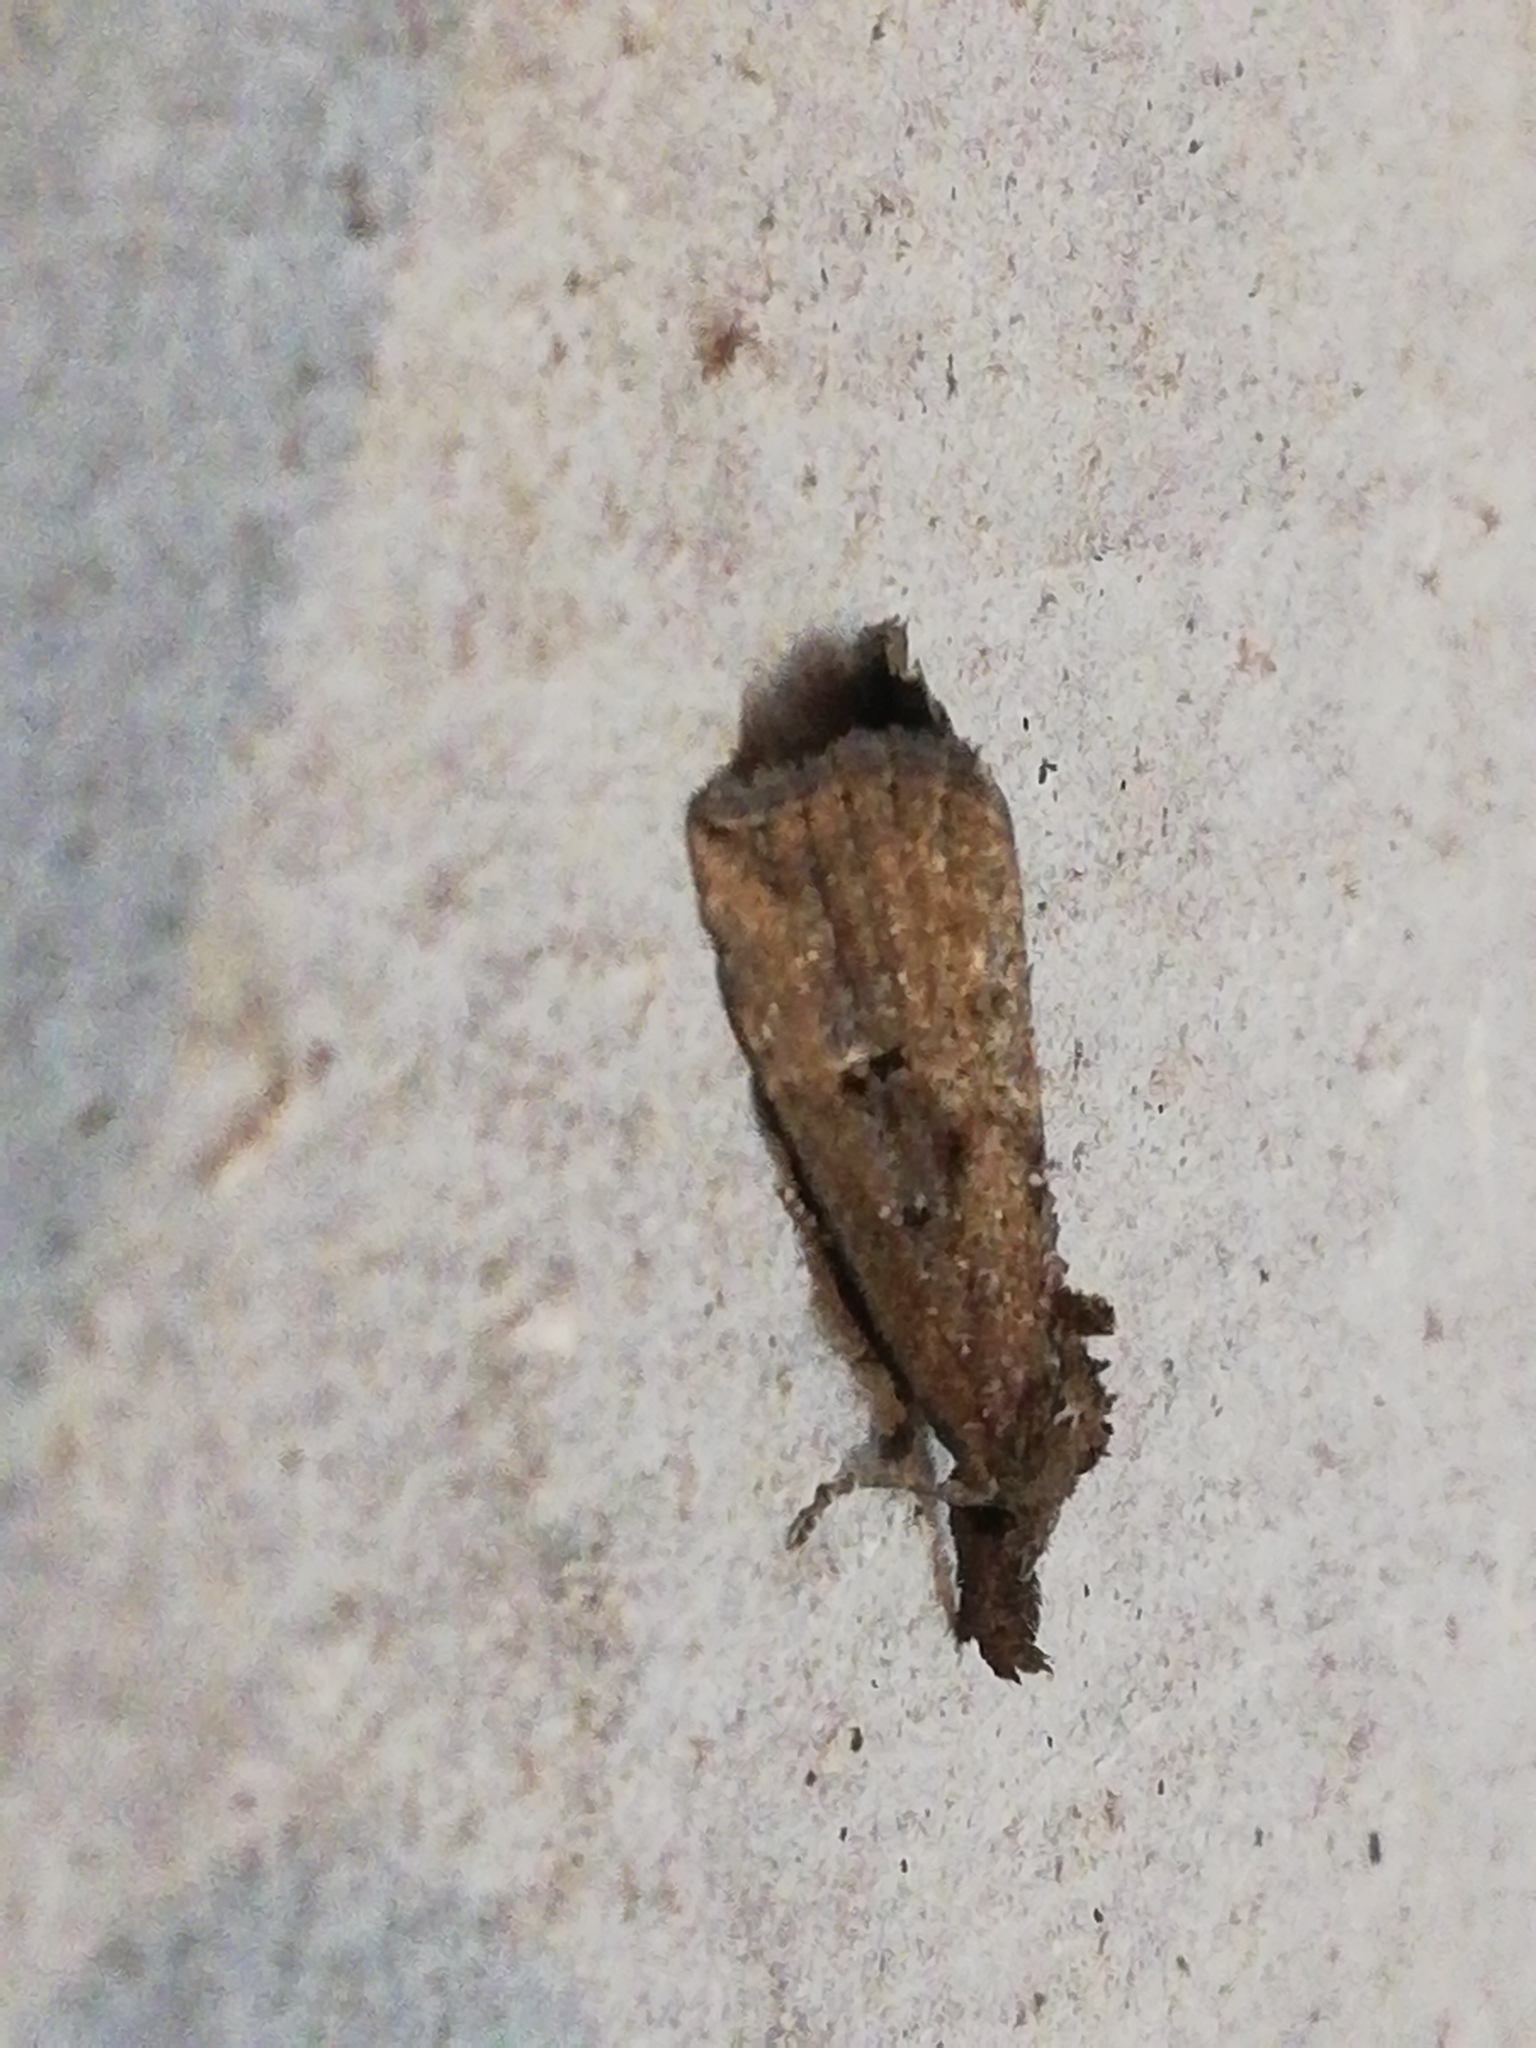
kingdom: Animalia
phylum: Arthropoda
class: Insecta
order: Lepidoptera
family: Erebidae
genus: Hypena
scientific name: Hypena rostralis
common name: Buttoned snout
